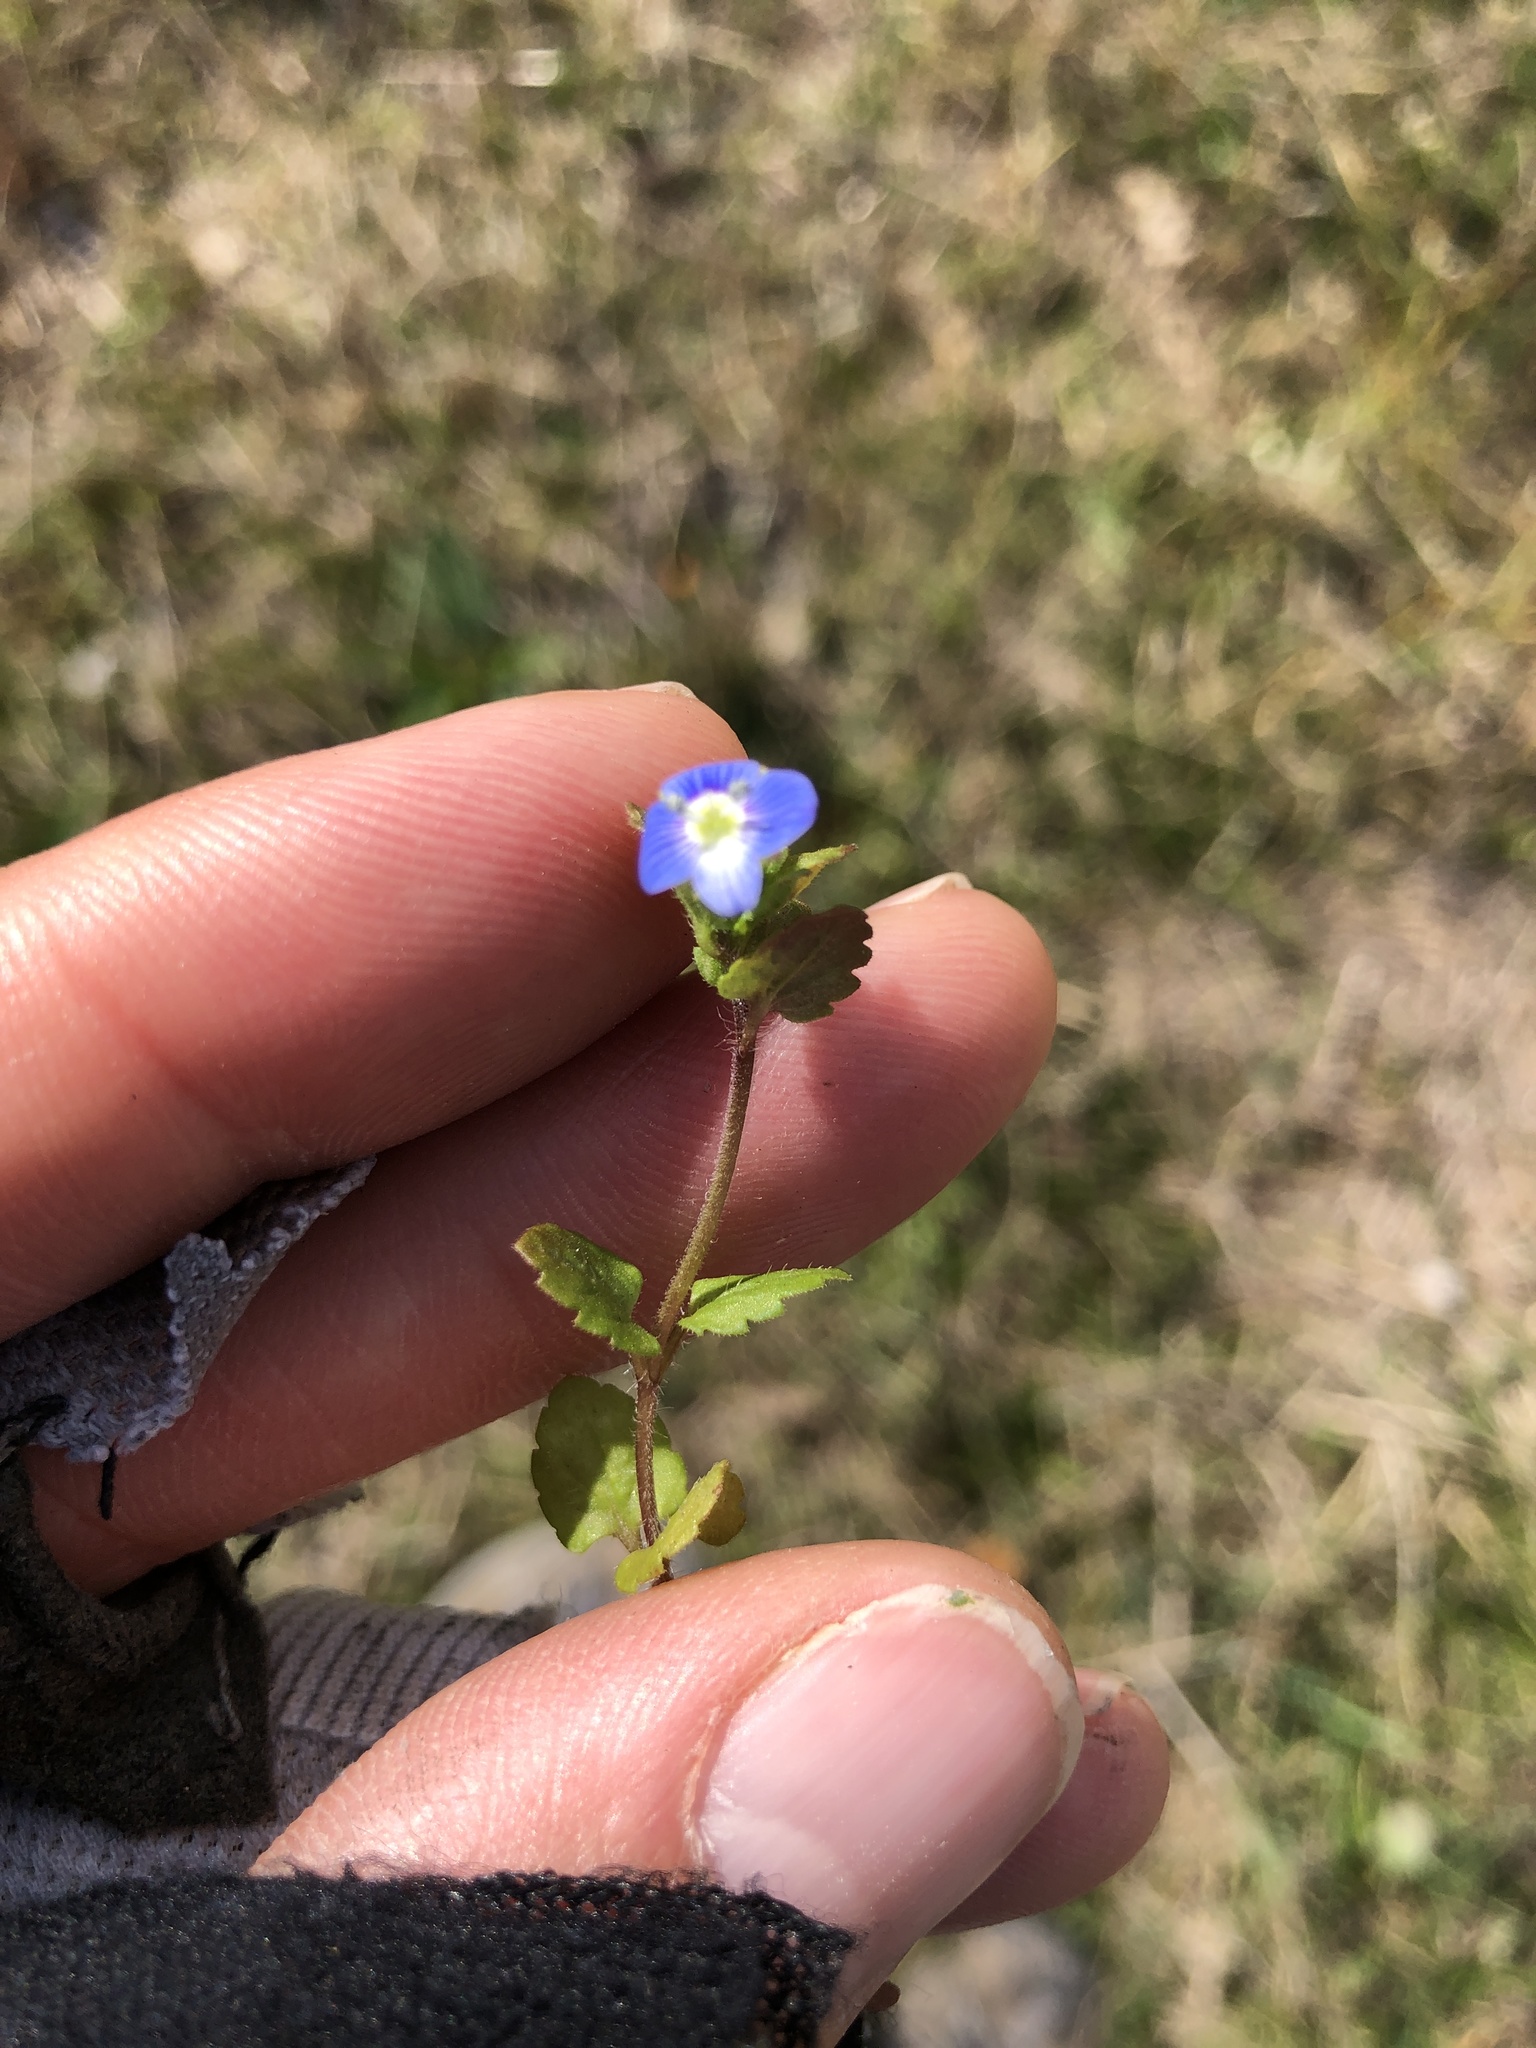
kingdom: Plantae
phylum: Tracheophyta
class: Magnoliopsida
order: Lamiales
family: Plantaginaceae
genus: Veronica
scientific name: Veronica persica
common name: Common field-speedwell
